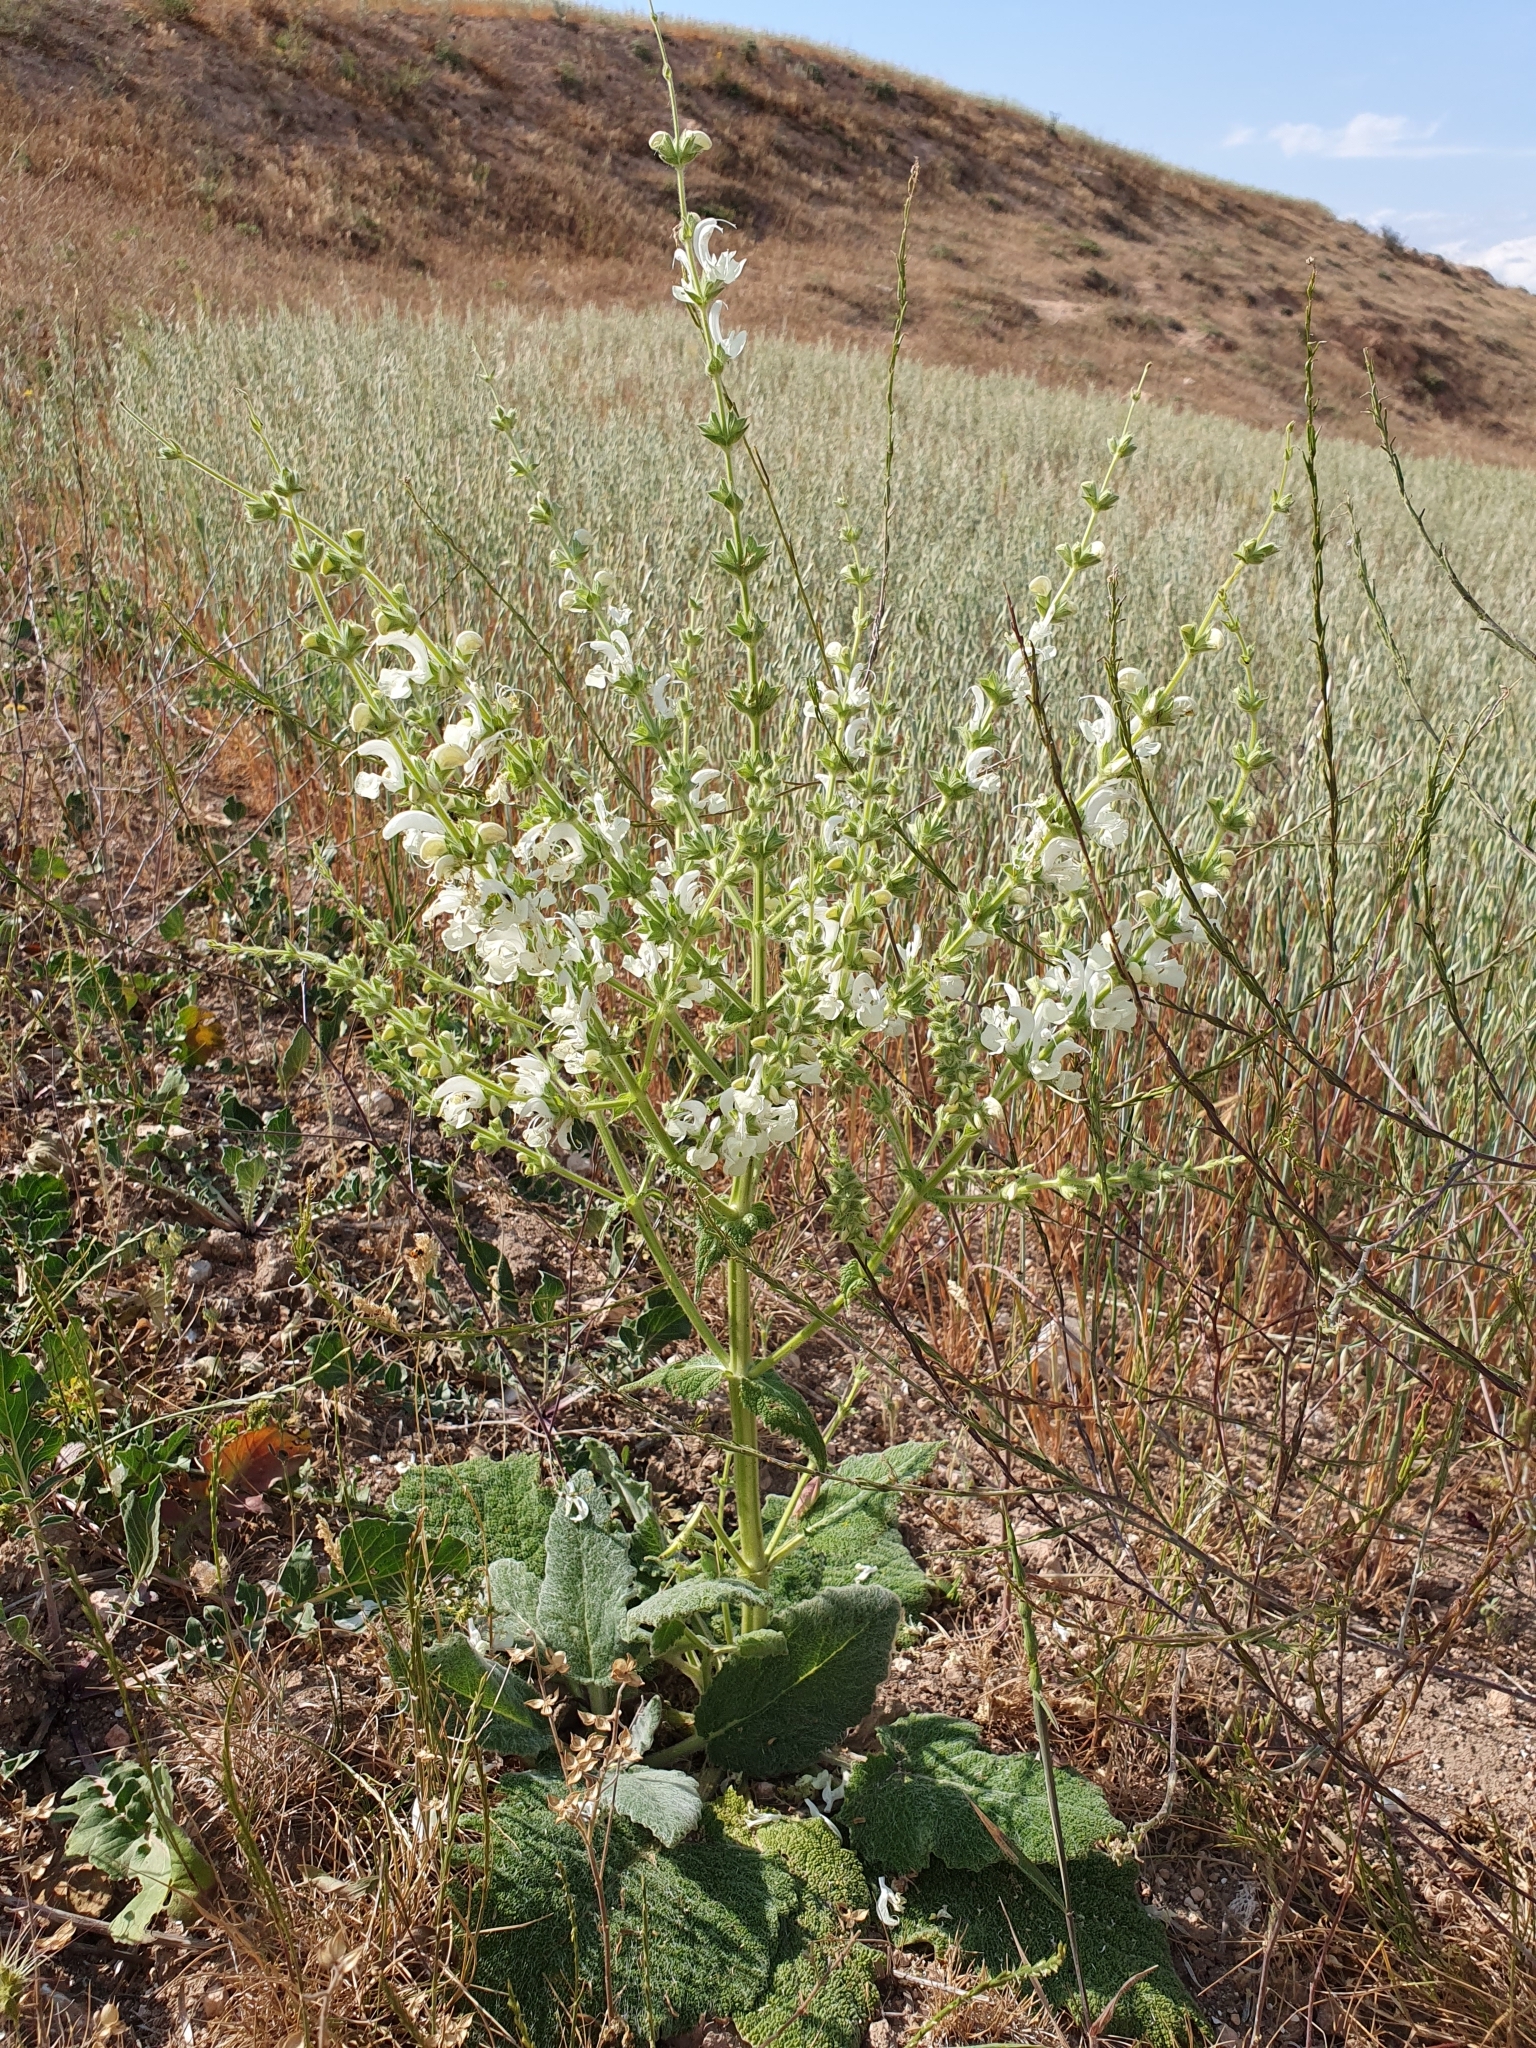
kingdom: Plantae
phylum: Tracheophyta
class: Magnoliopsida
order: Lamiales
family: Lamiaceae
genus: Salvia
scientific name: Salvia argentea
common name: Silver sage
